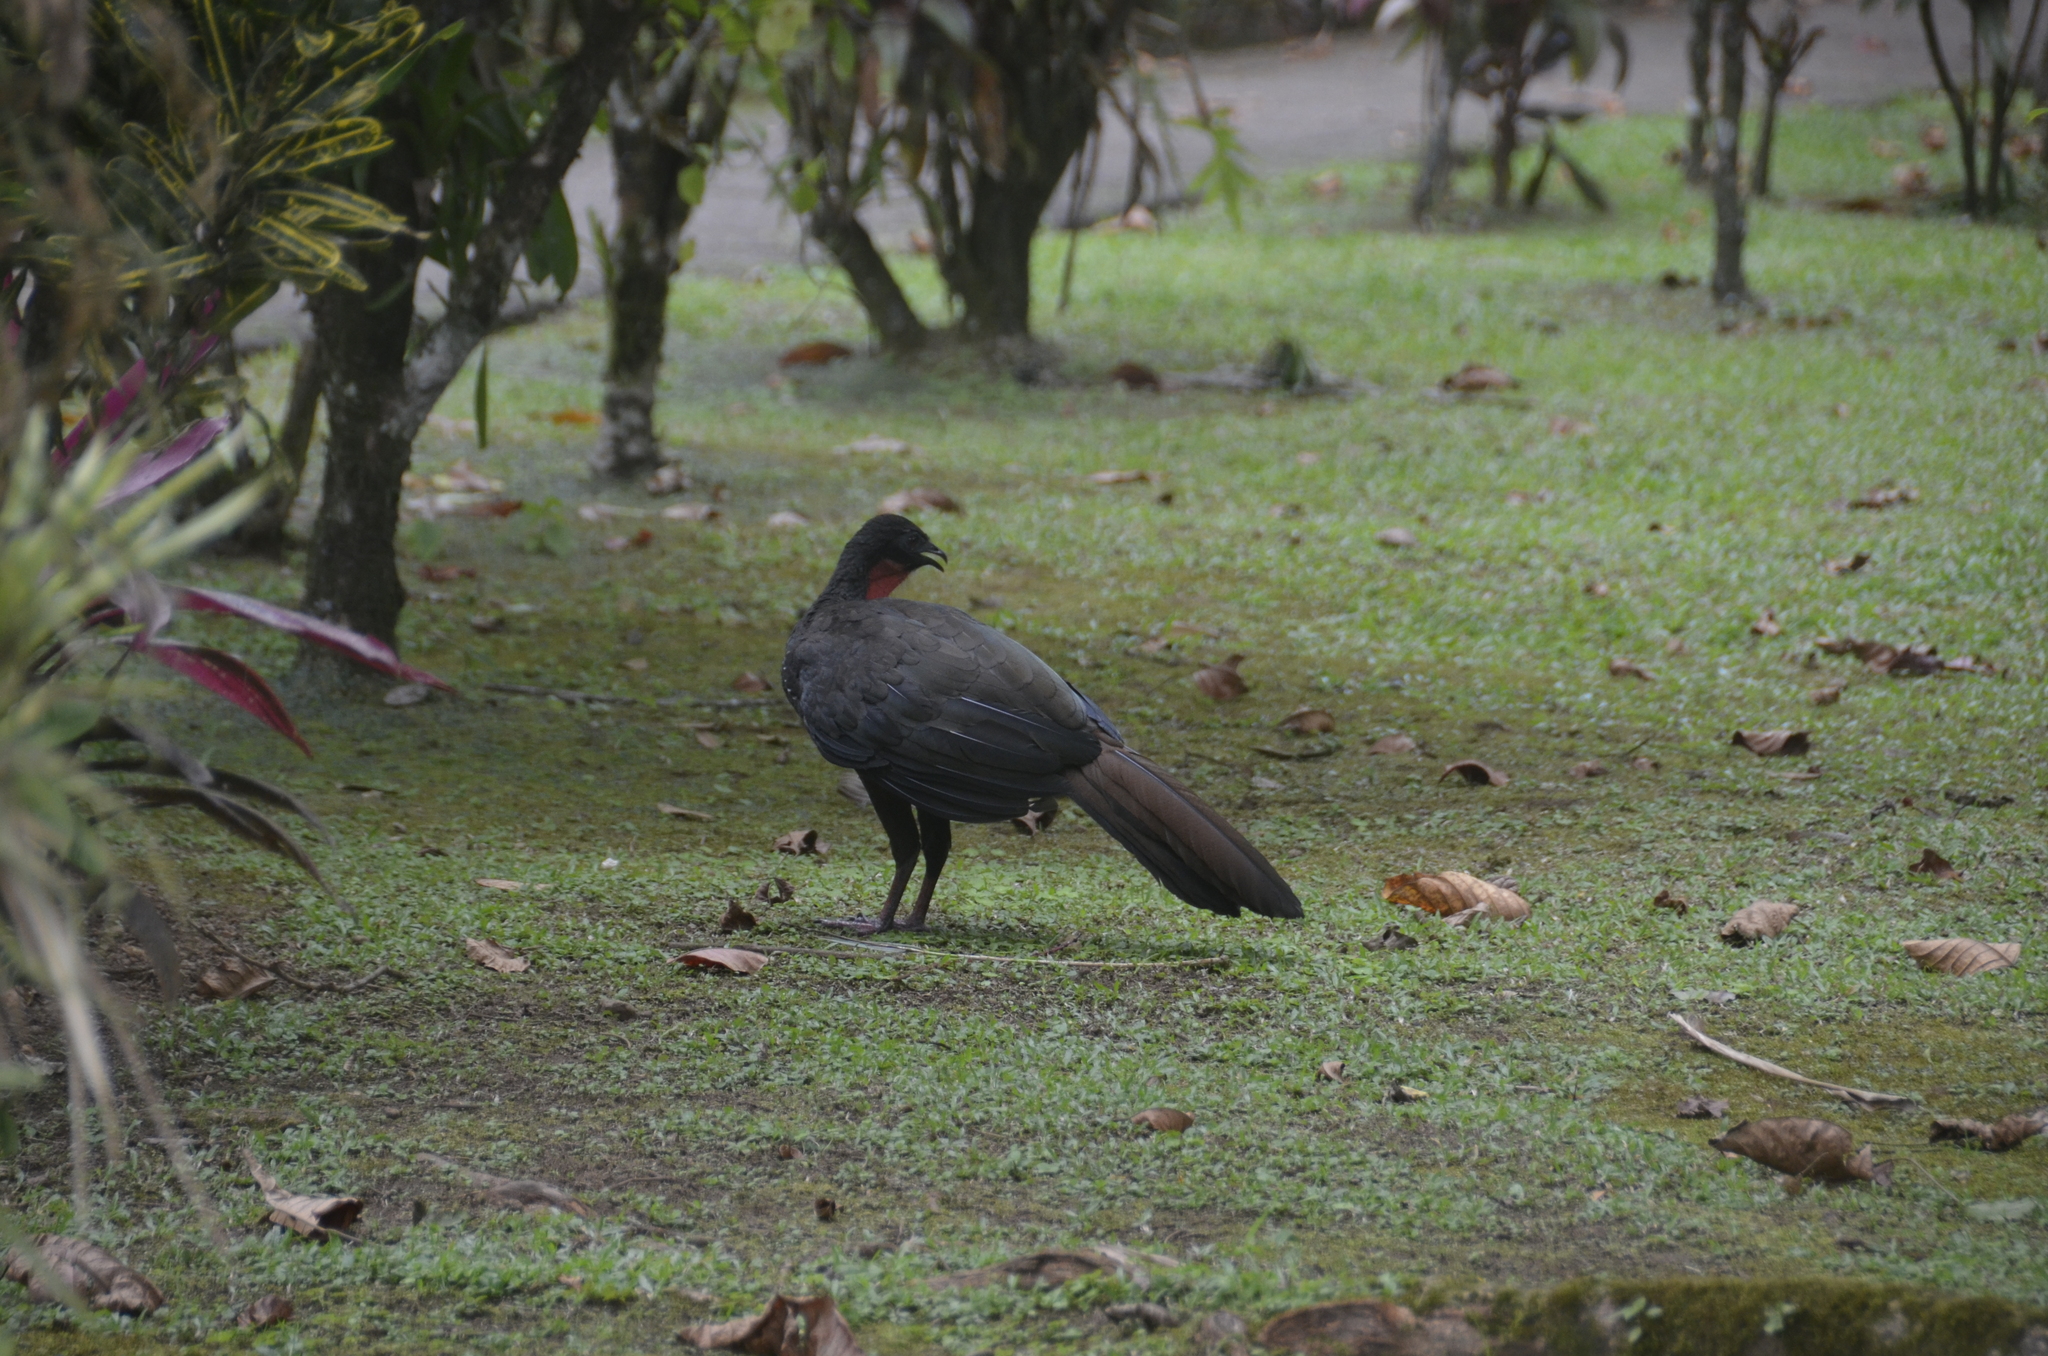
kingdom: Animalia
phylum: Chordata
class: Aves
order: Galliformes
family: Cracidae
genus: Penelope
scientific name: Penelope purpurascens
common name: Crested guan
